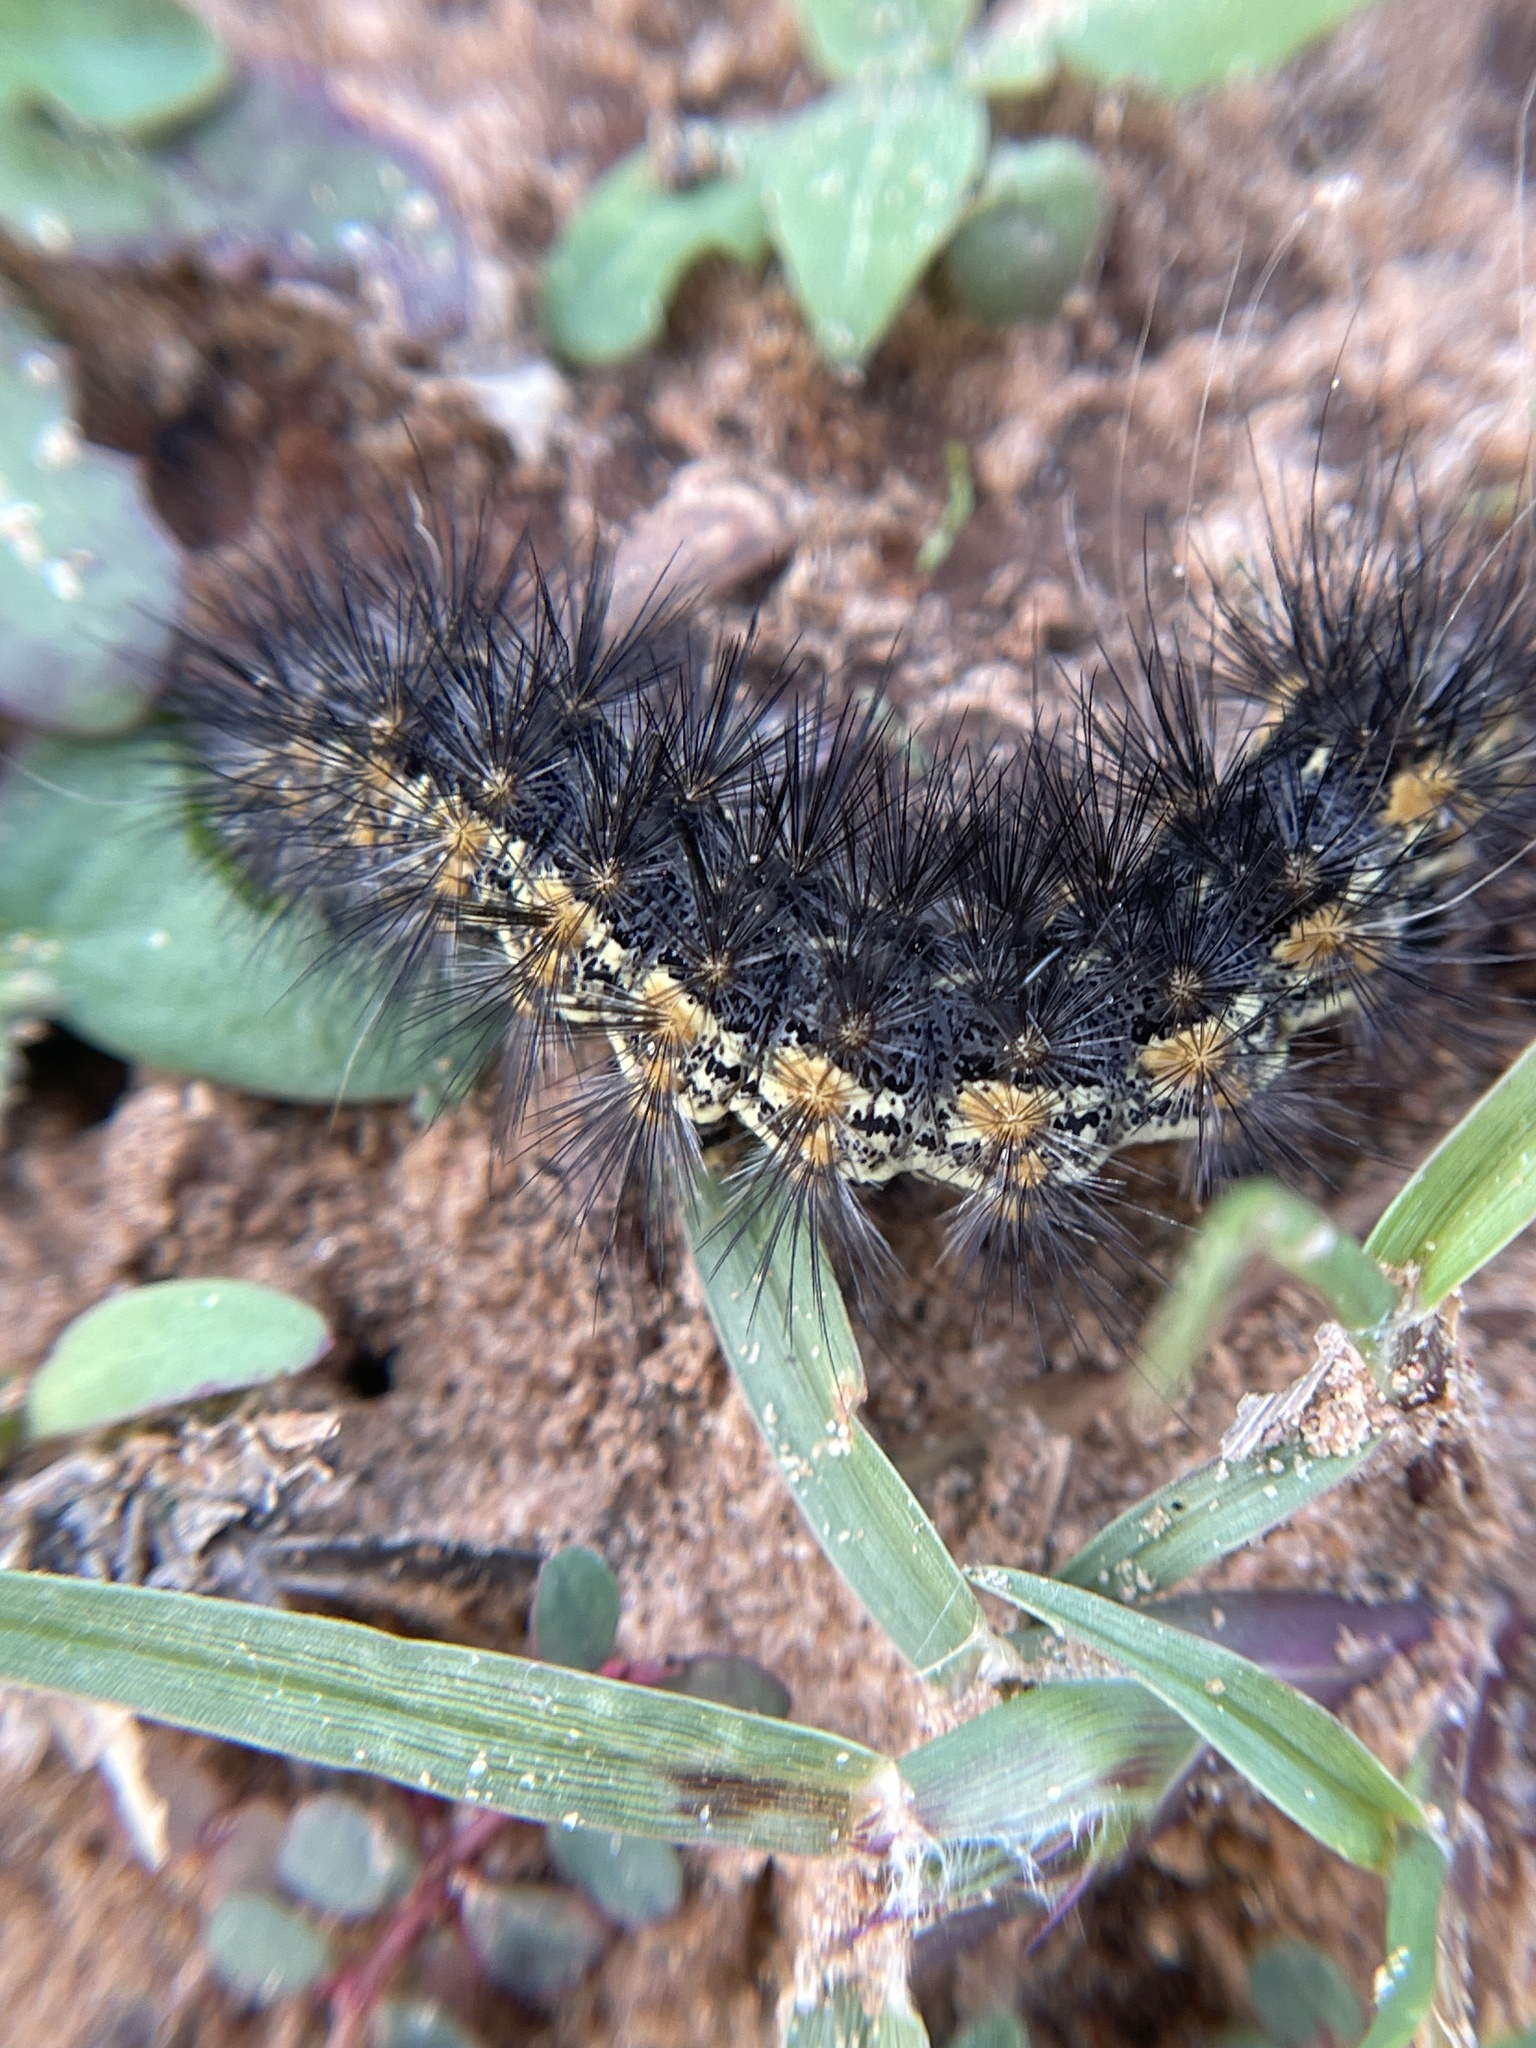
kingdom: Animalia
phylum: Arthropoda
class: Insecta
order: Lepidoptera
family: Erebidae
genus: Estigmene
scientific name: Estigmene acrea
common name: Salt marsh moth
